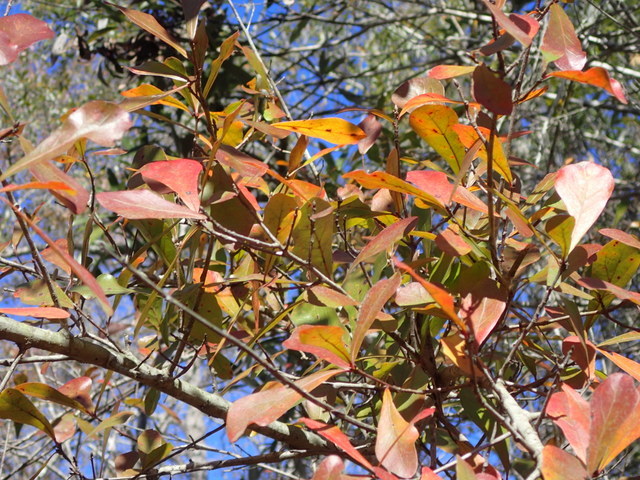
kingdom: Plantae
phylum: Tracheophyta
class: Magnoliopsida
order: Fagales
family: Fagaceae
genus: Quercus
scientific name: Quercus nigra
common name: Water oak
